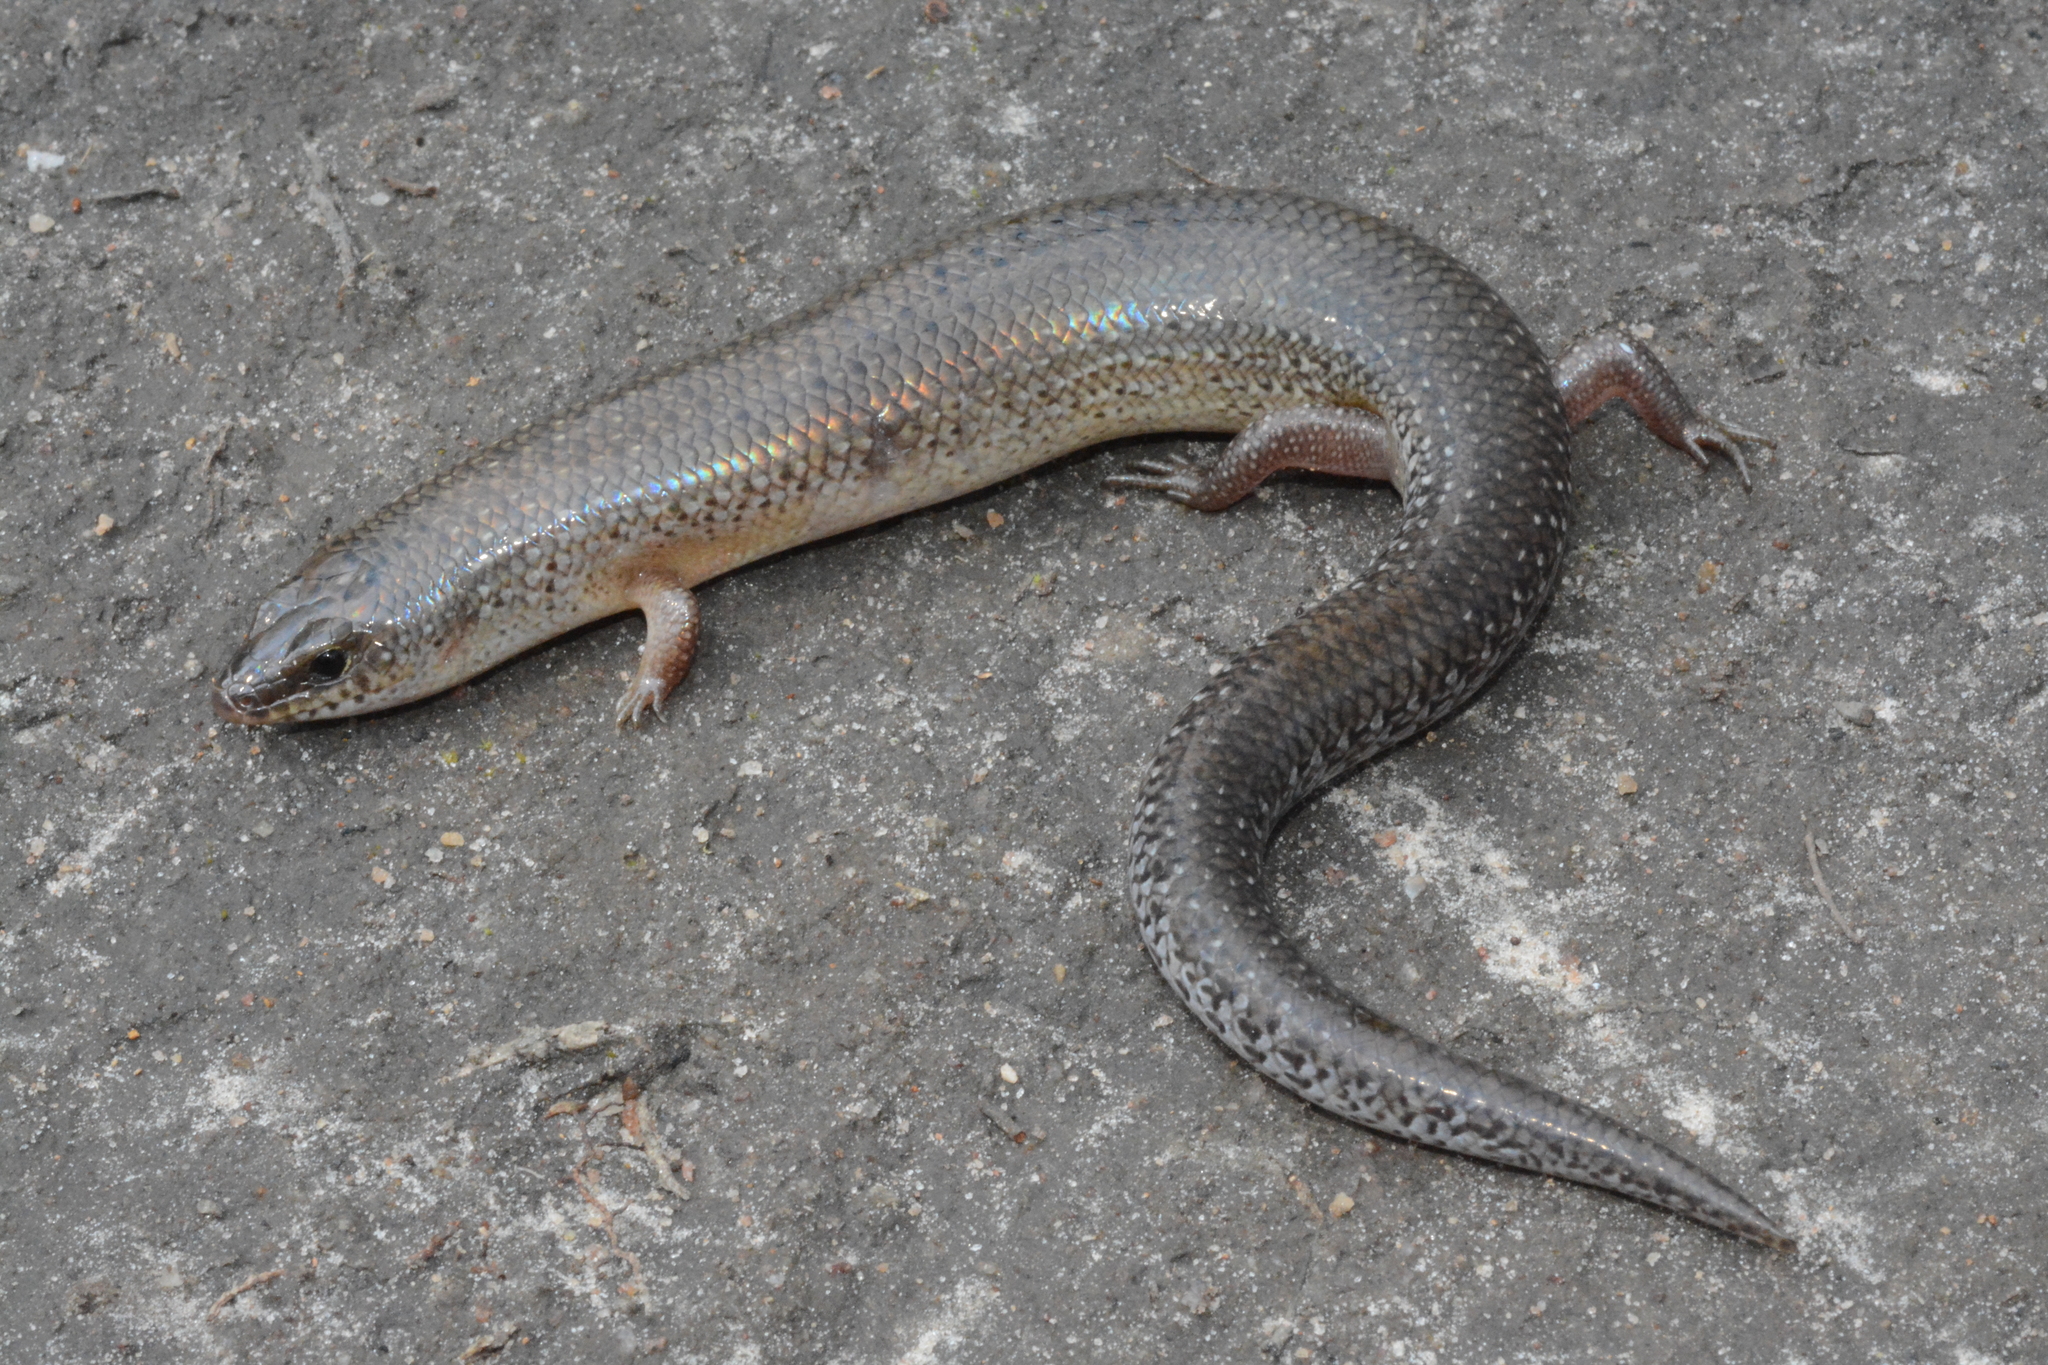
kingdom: Animalia
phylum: Chordata
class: Squamata
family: Scincidae
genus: Mochlus
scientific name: Mochlus sundevallii
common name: Peters' eyelid skink
